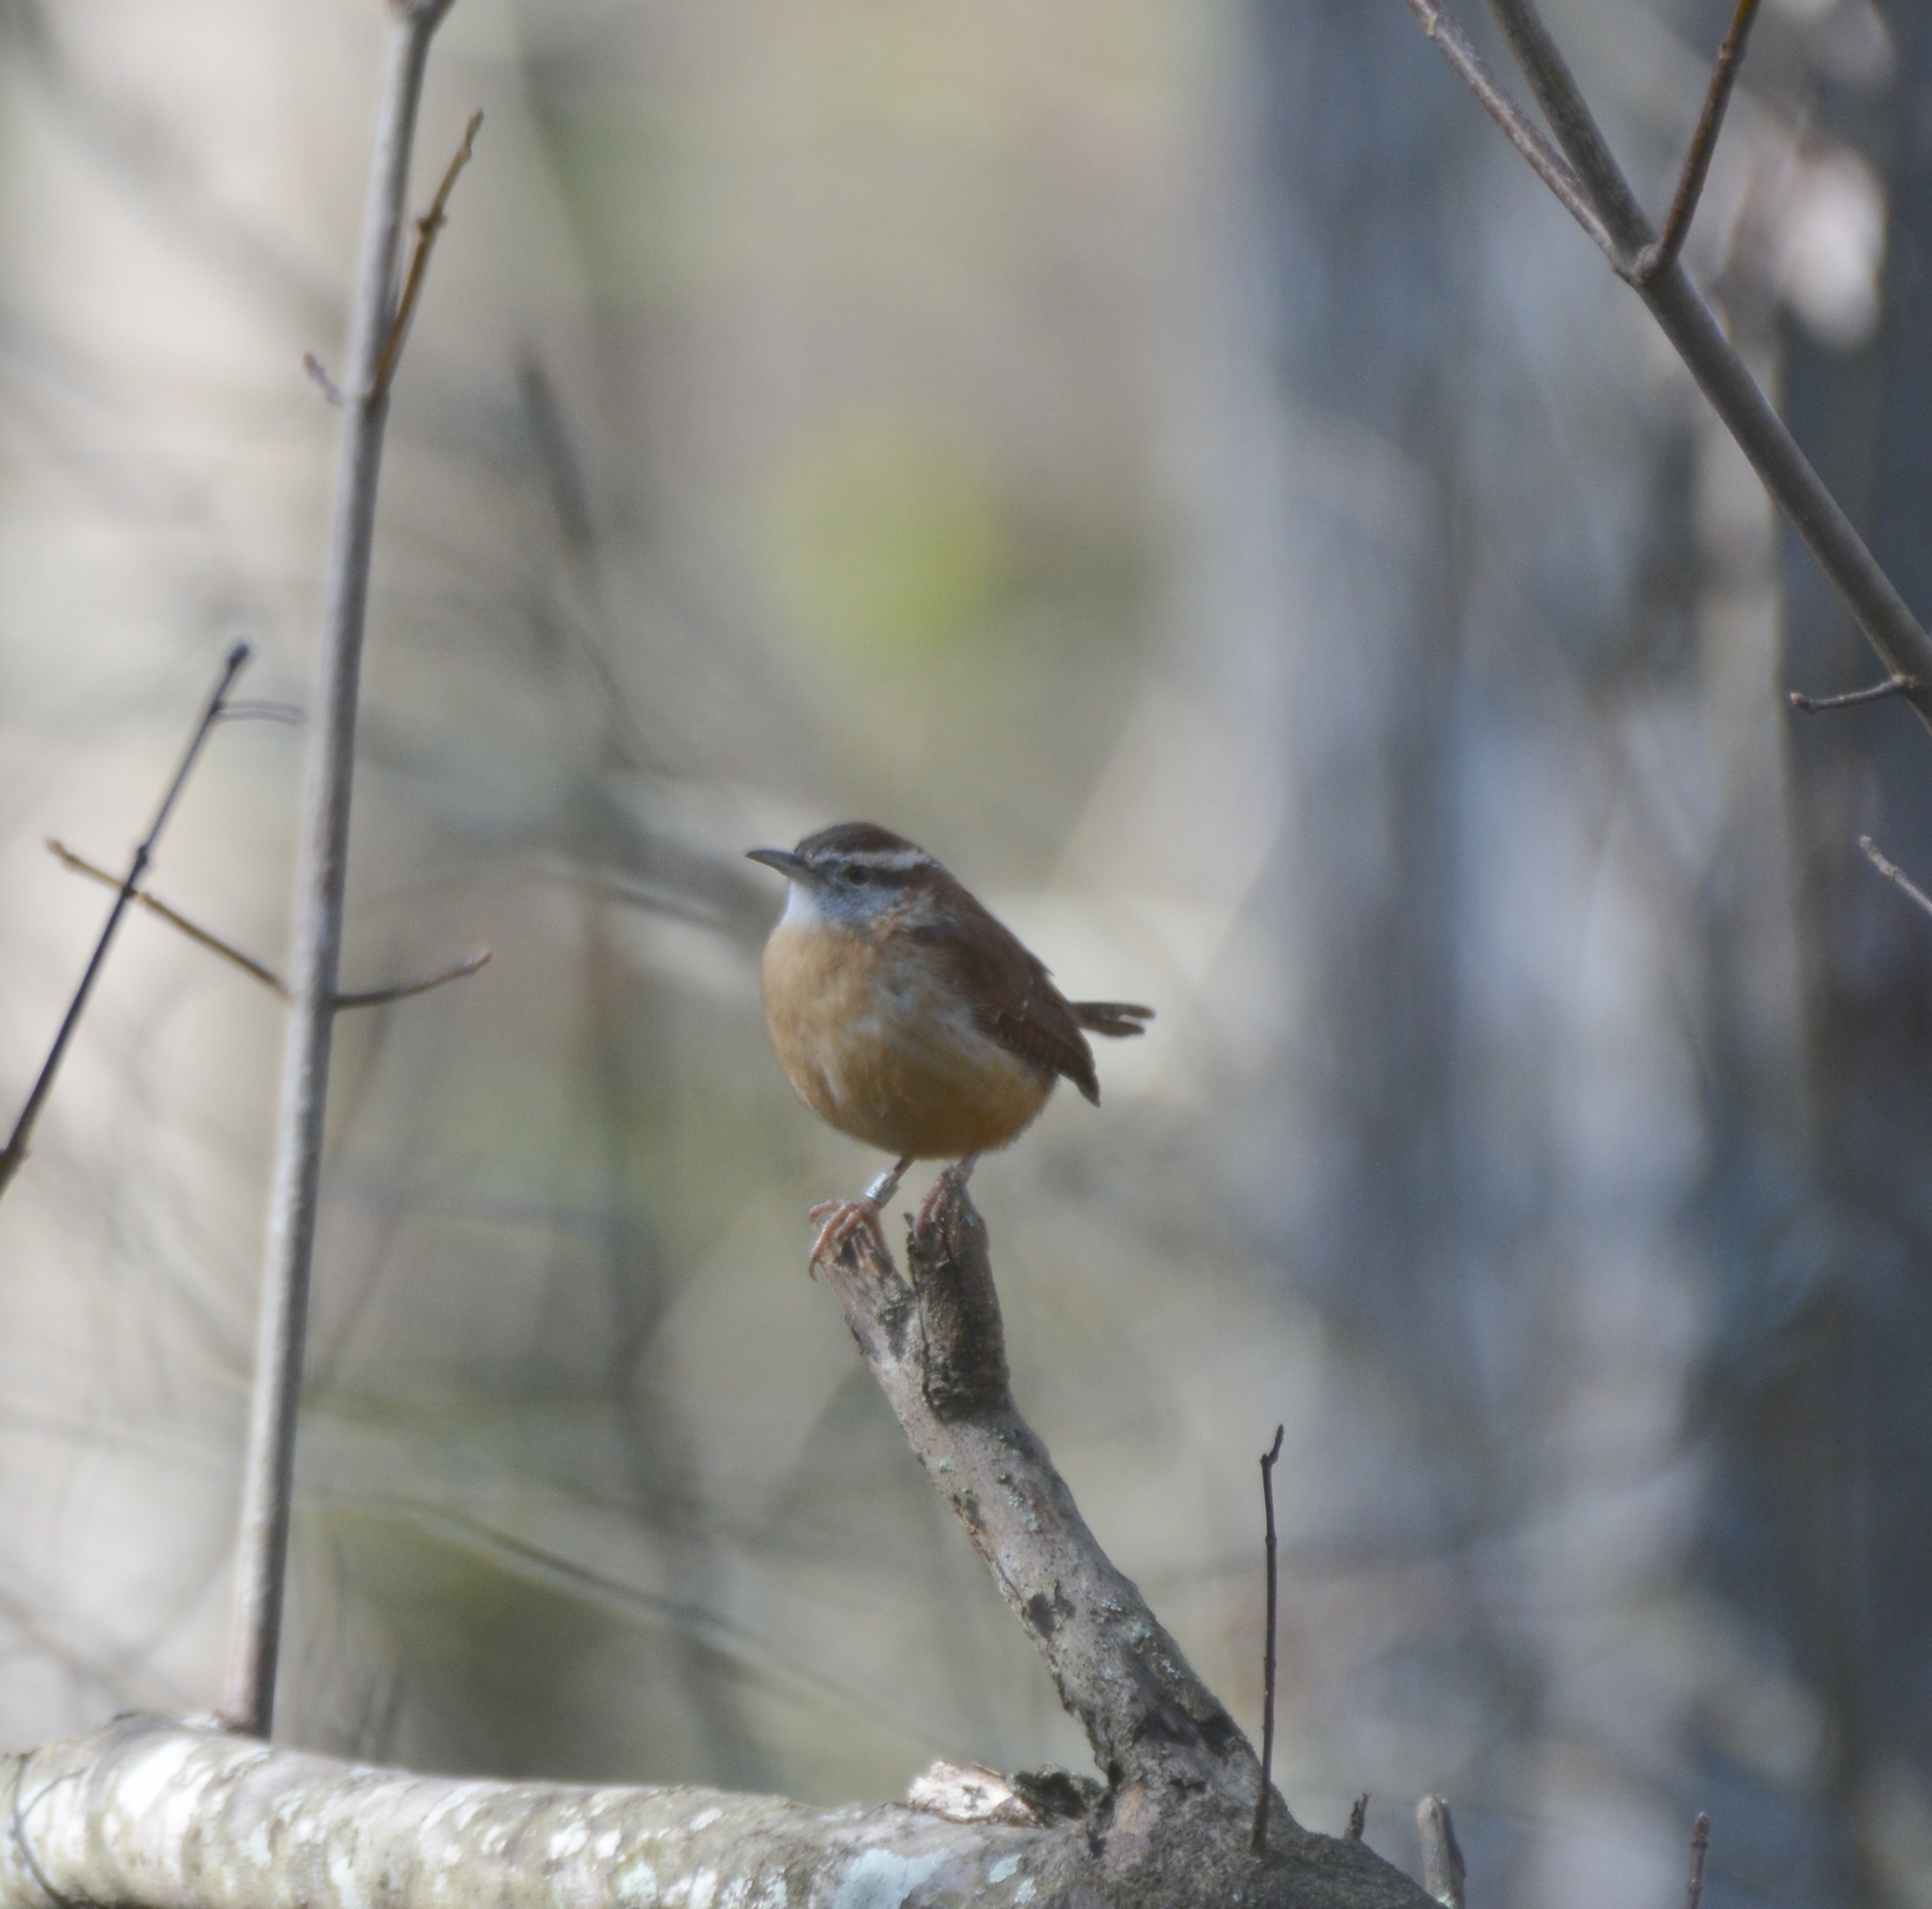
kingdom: Animalia
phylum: Chordata
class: Aves
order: Passeriformes
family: Troglodytidae
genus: Thryothorus
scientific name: Thryothorus ludovicianus
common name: Carolina wren
